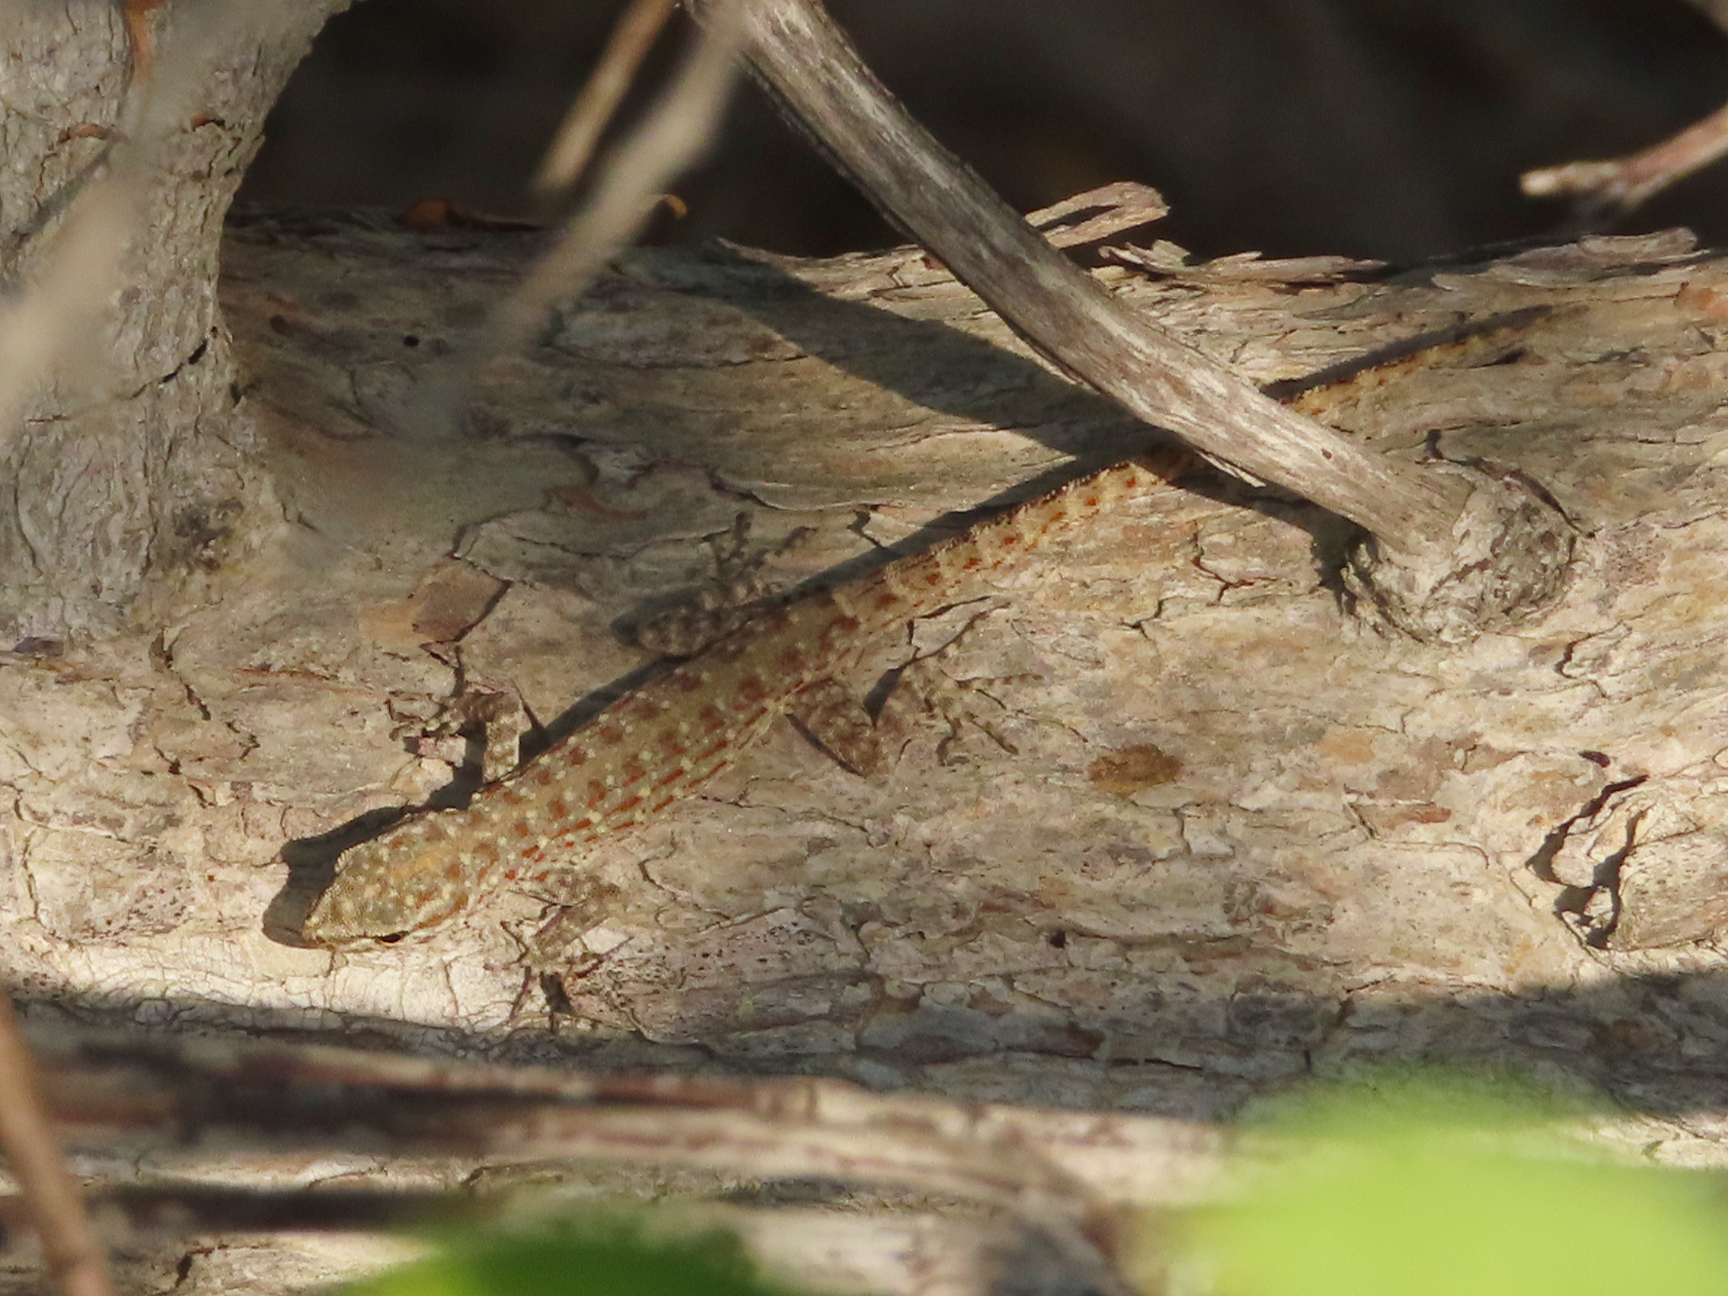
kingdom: Animalia
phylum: Chordata
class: Squamata
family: Sphaerodactylidae
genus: Pristurus
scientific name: Pristurus rupestris
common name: Blanford’s semaphore gecko
